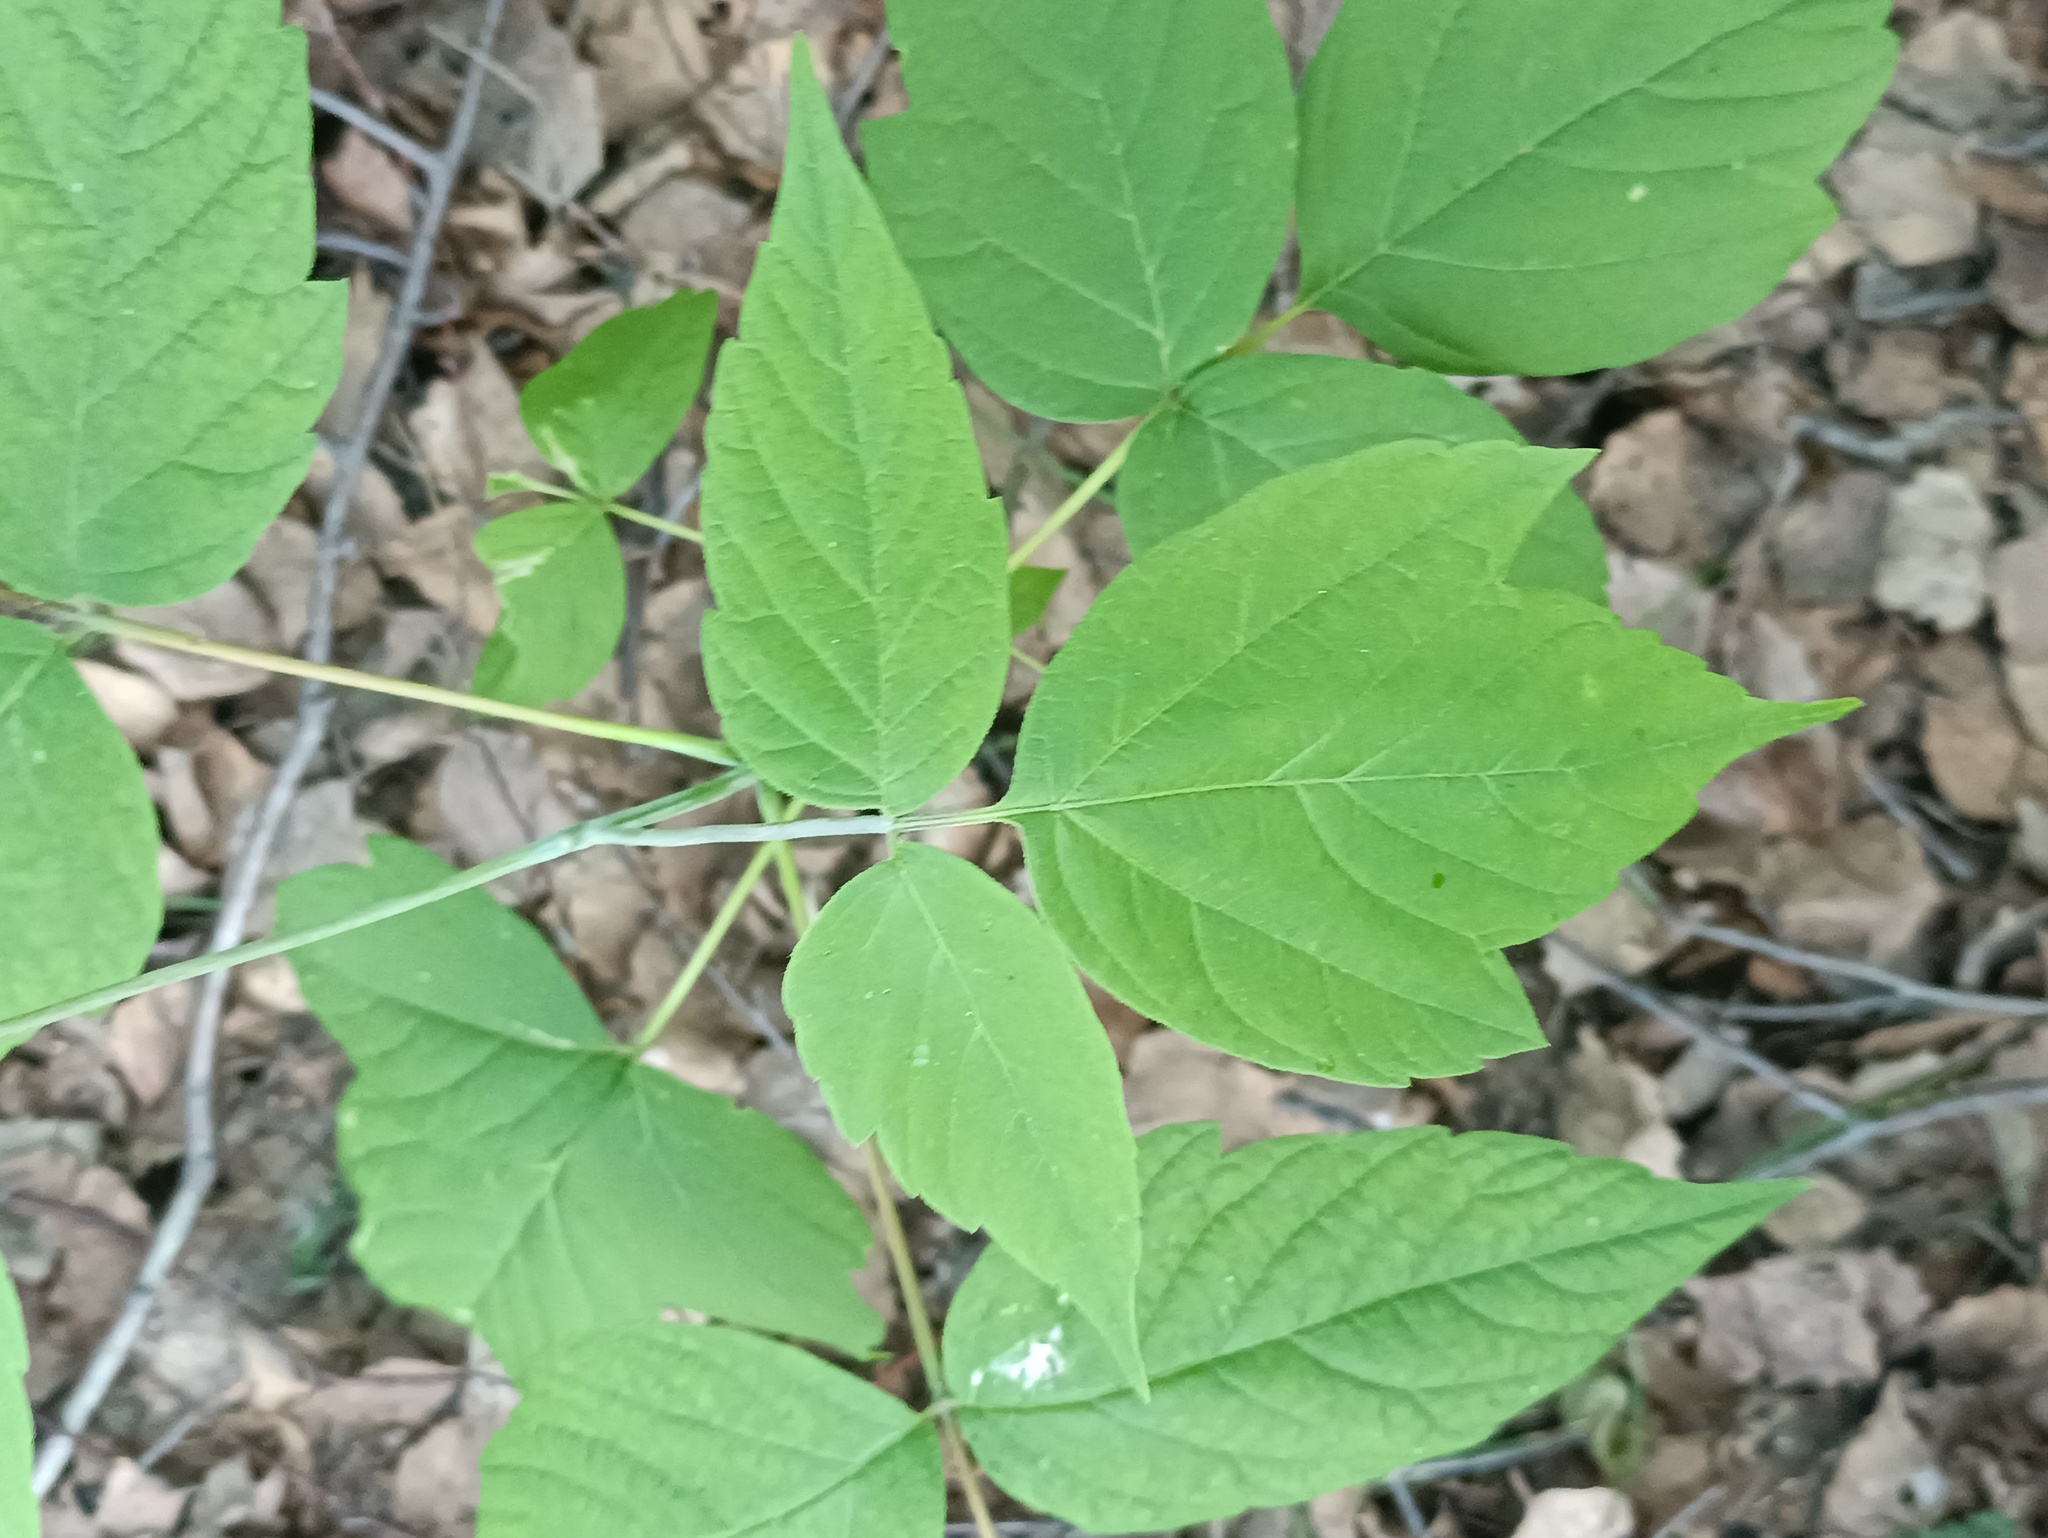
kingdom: Plantae
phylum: Tracheophyta
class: Magnoliopsida
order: Sapindales
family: Sapindaceae
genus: Acer
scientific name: Acer negundo
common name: Ashleaf maple
